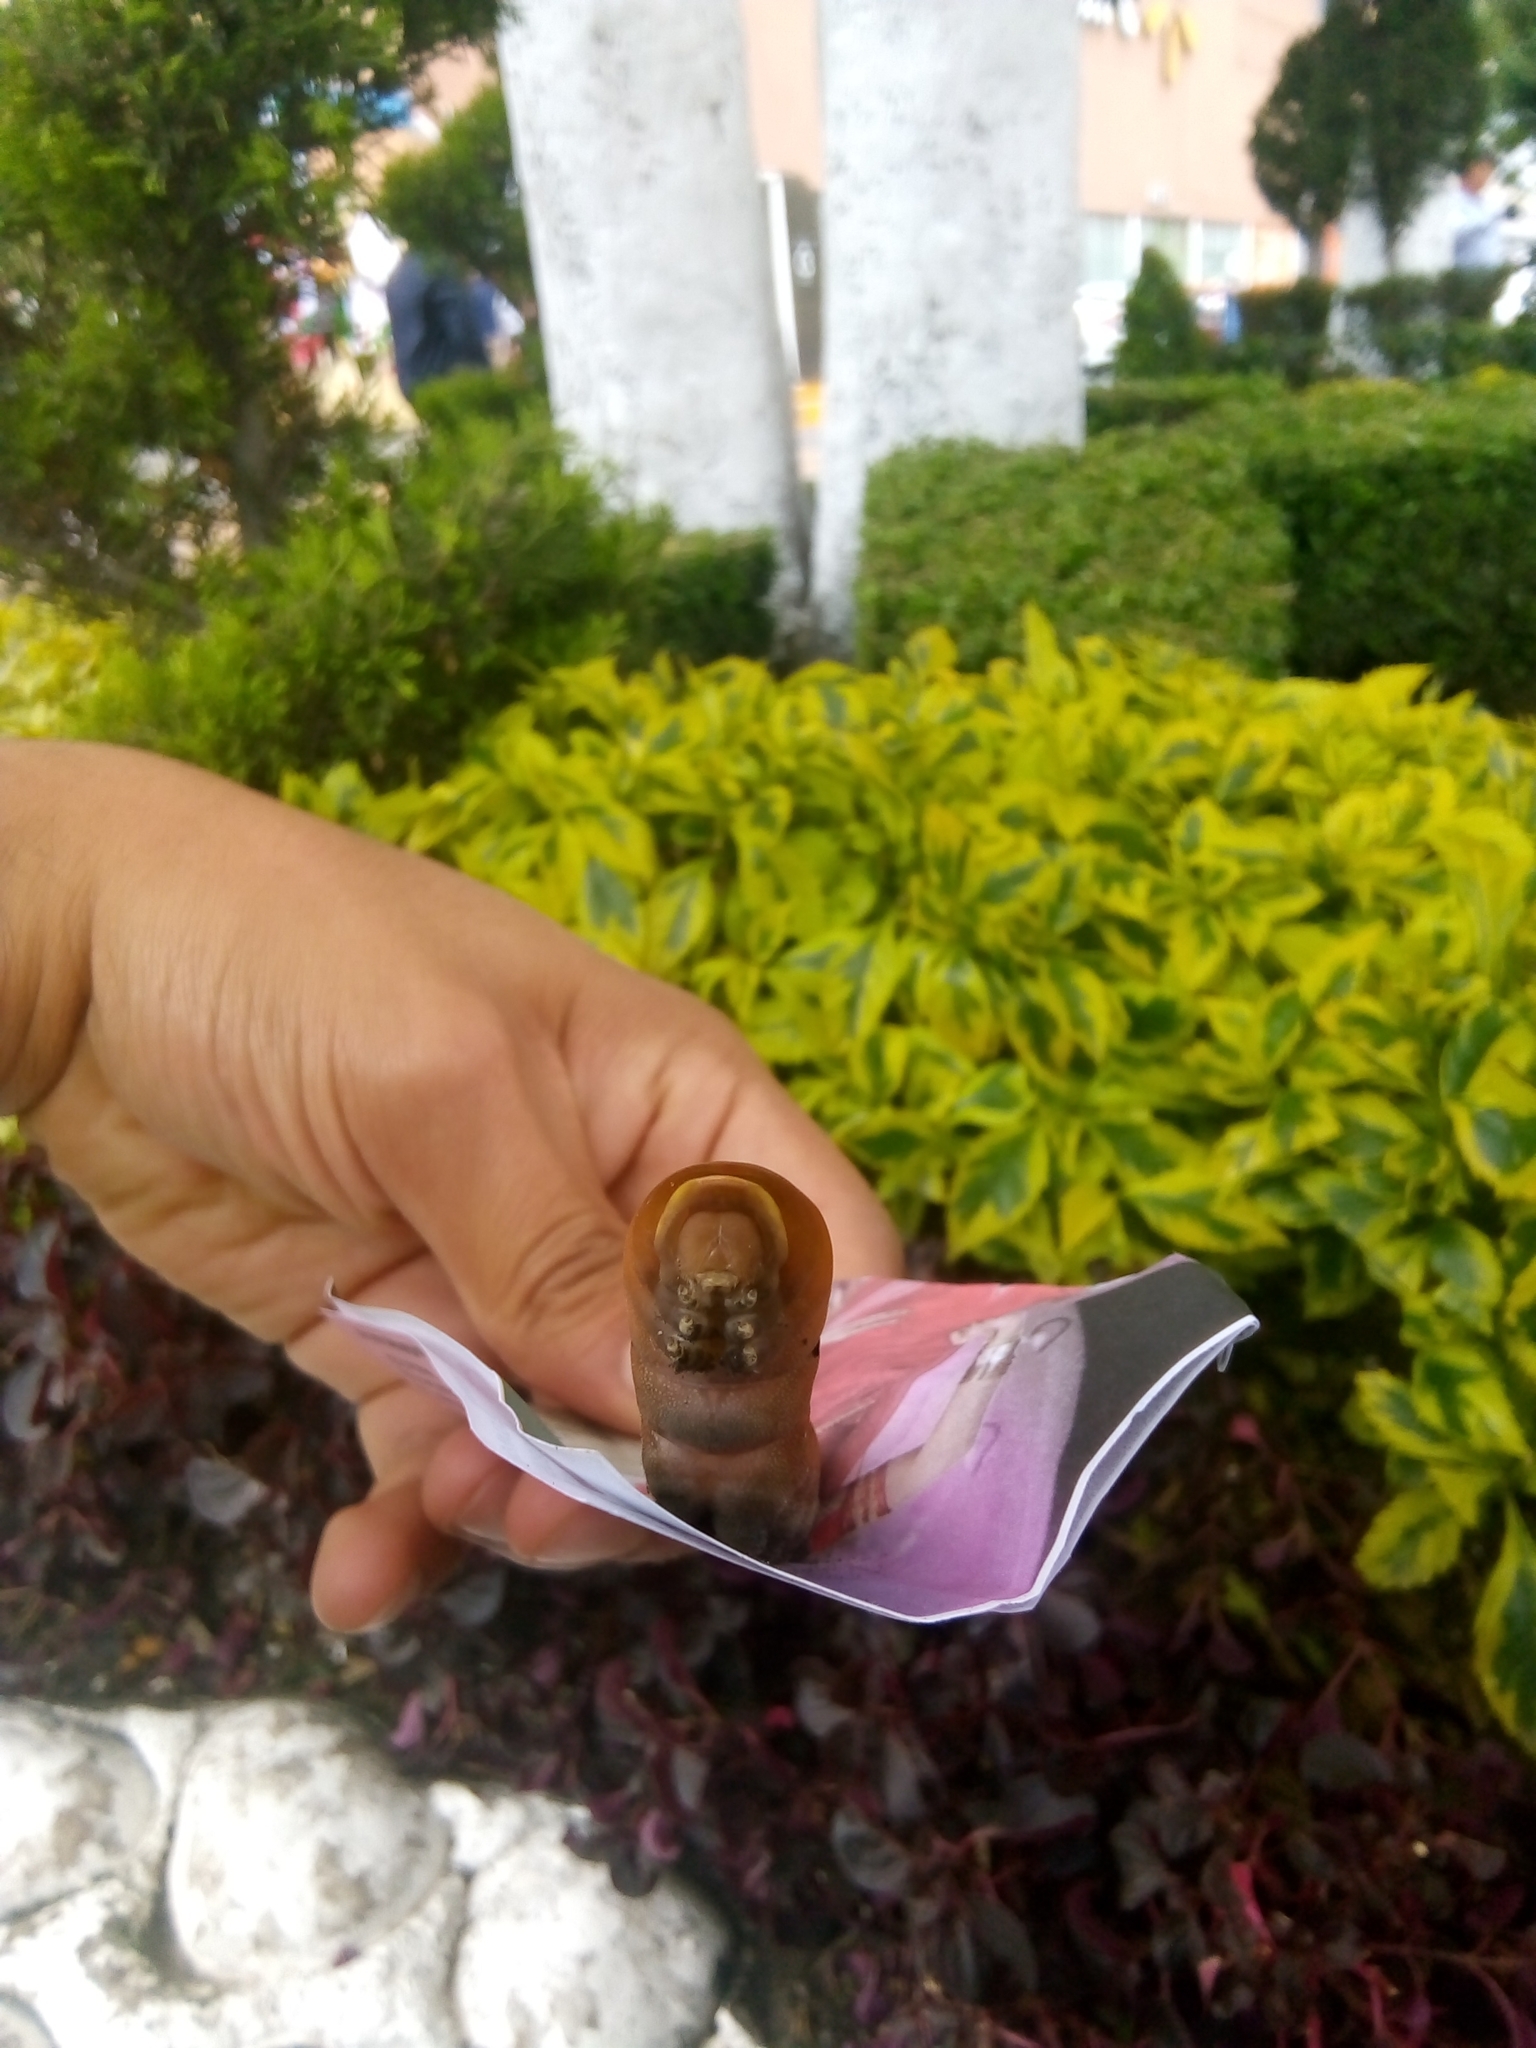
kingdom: Animalia
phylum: Arthropoda
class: Insecta
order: Lepidoptera
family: Papilionidae
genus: Papilio
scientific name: Papilio multicaudata
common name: Two-tailed tiger swallowtail
